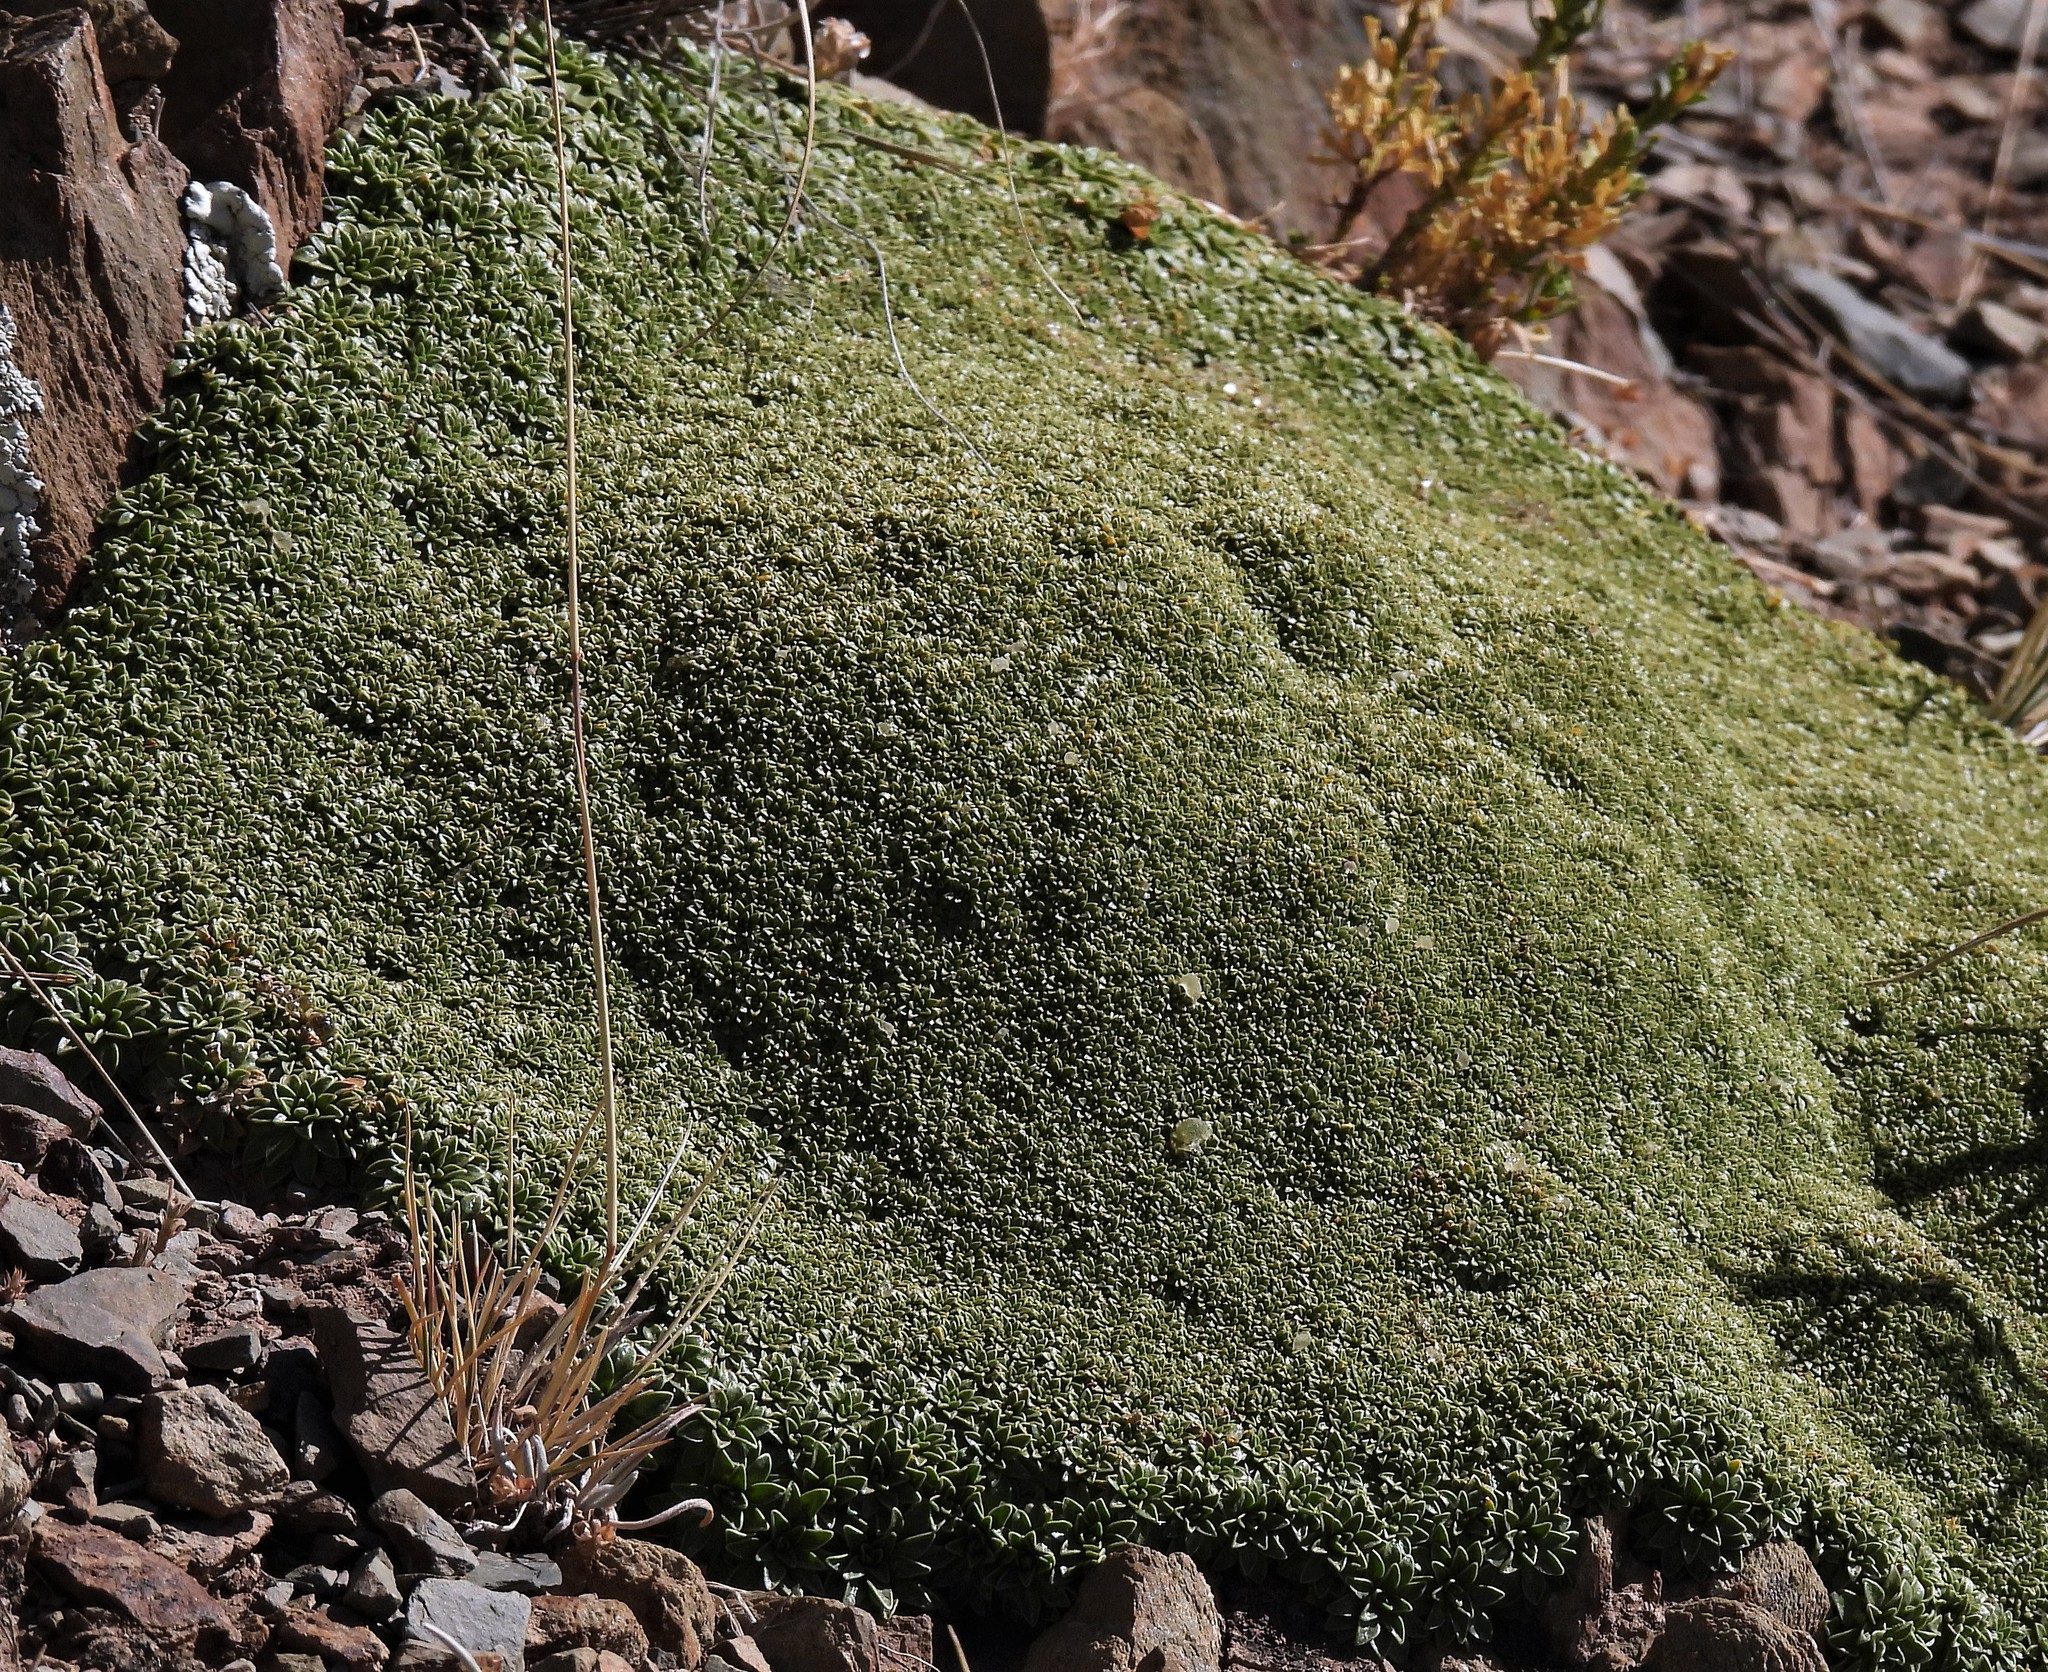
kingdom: Plantae
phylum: Tracheophyta
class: Magnoliopsida
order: Apiales
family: Apiaceae
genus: Azorella
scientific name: Azorella compacta
